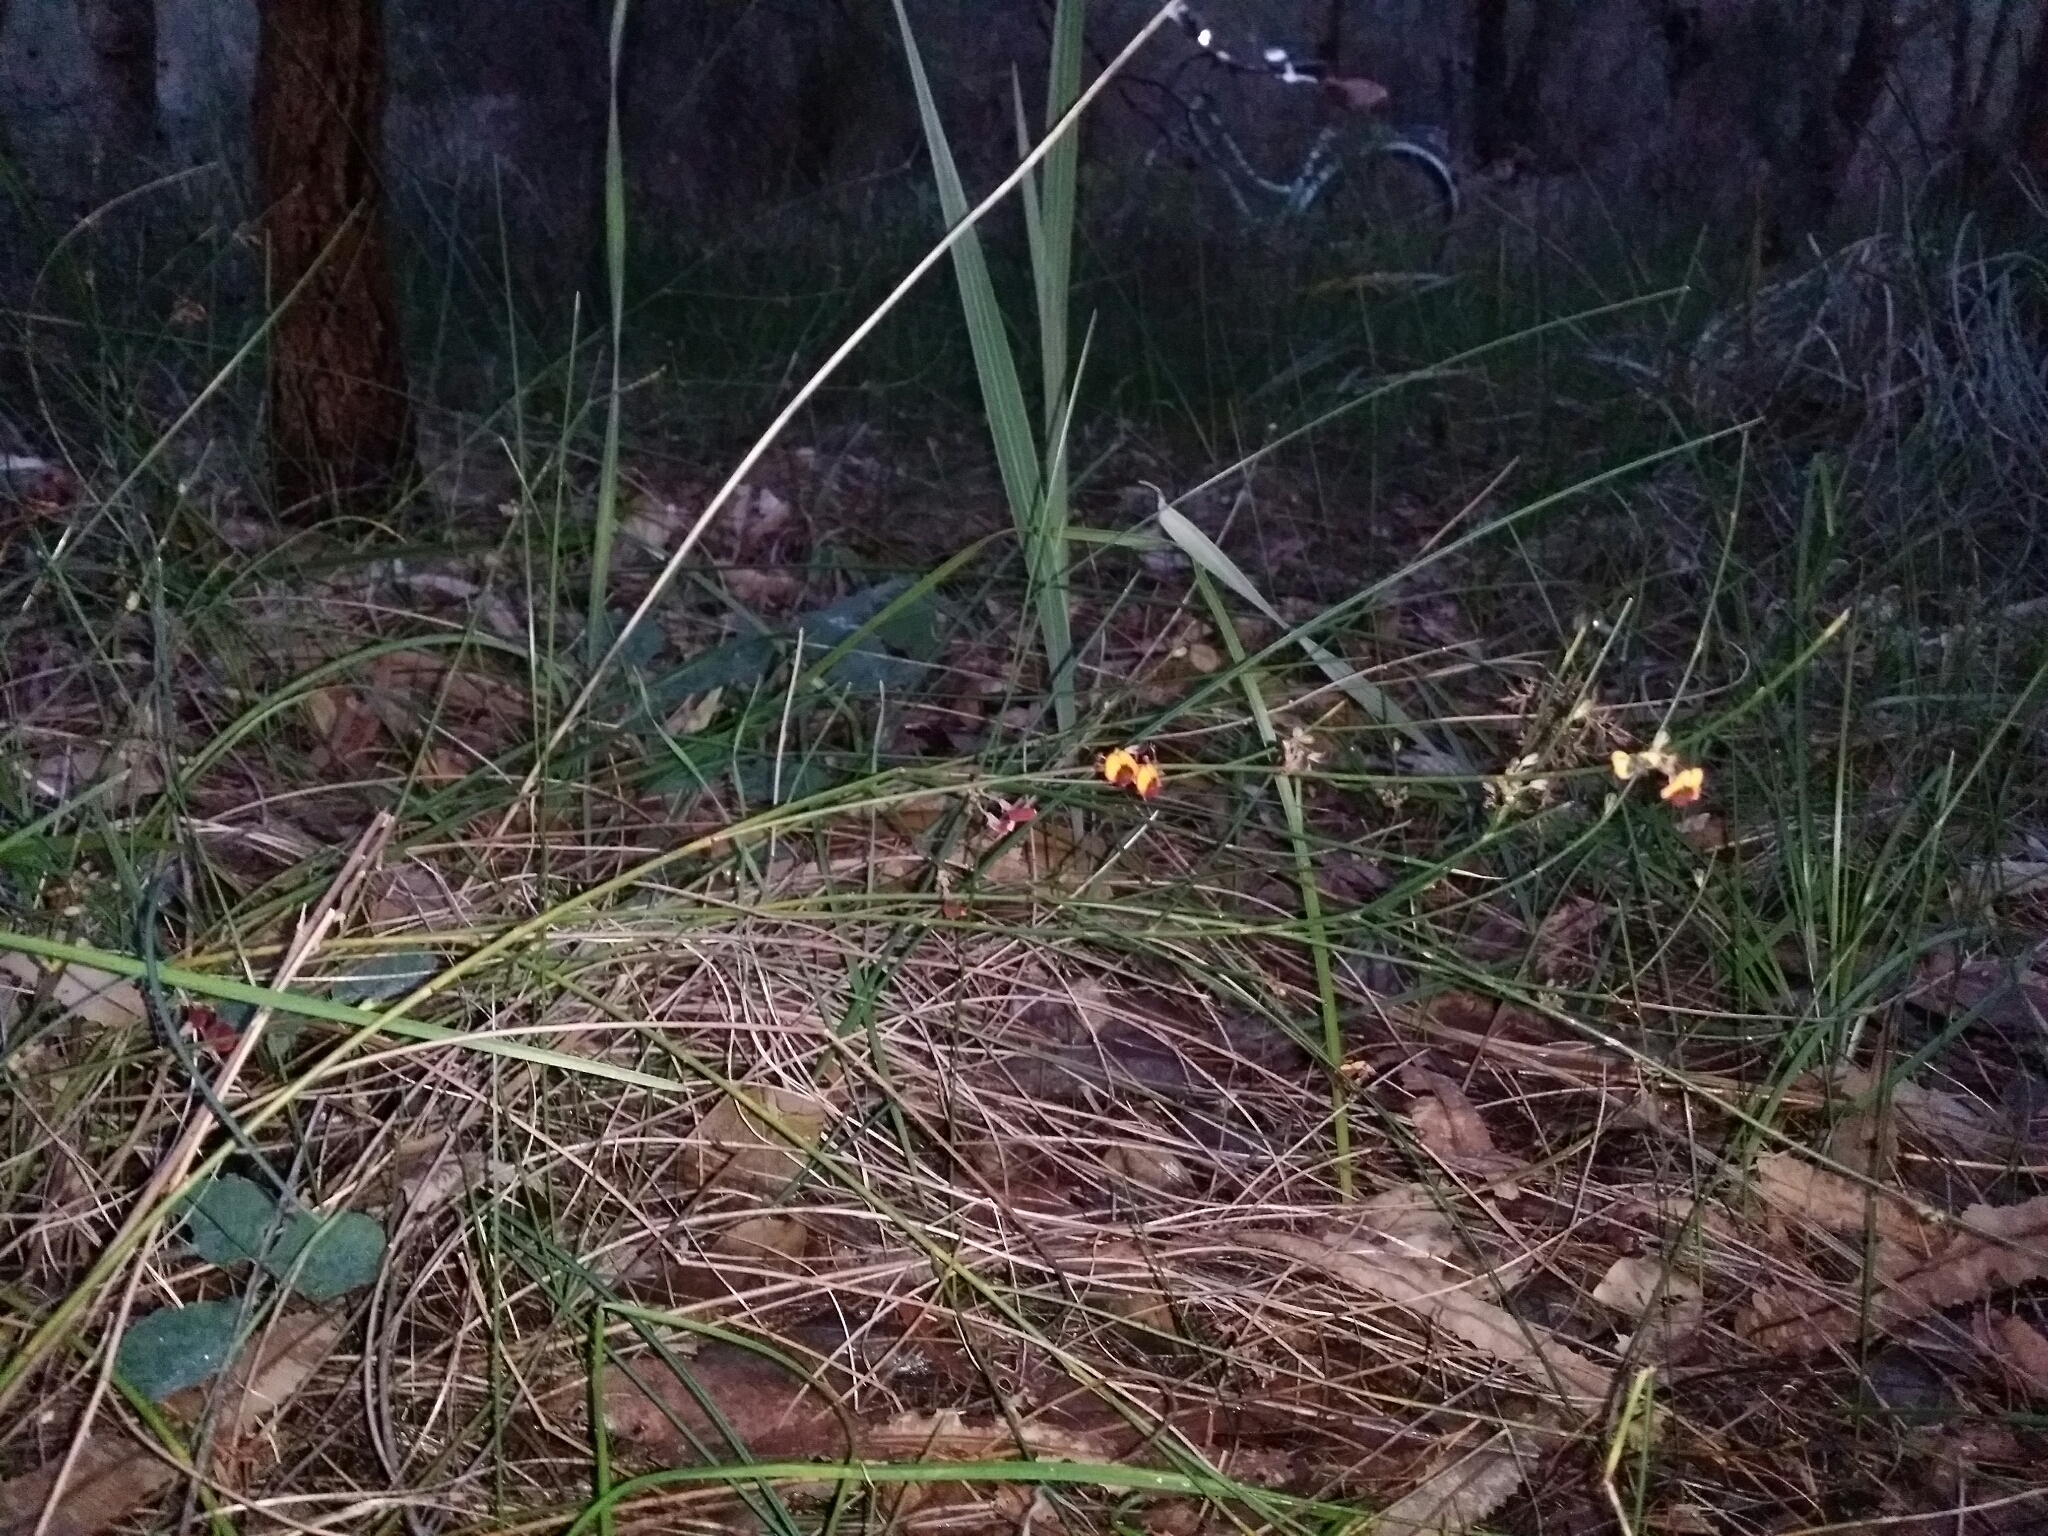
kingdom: Plantae
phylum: Tracheophyta
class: Magnoliopsida
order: Fabales
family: Fabaceae
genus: Daviesia
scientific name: Daviesia triflora
